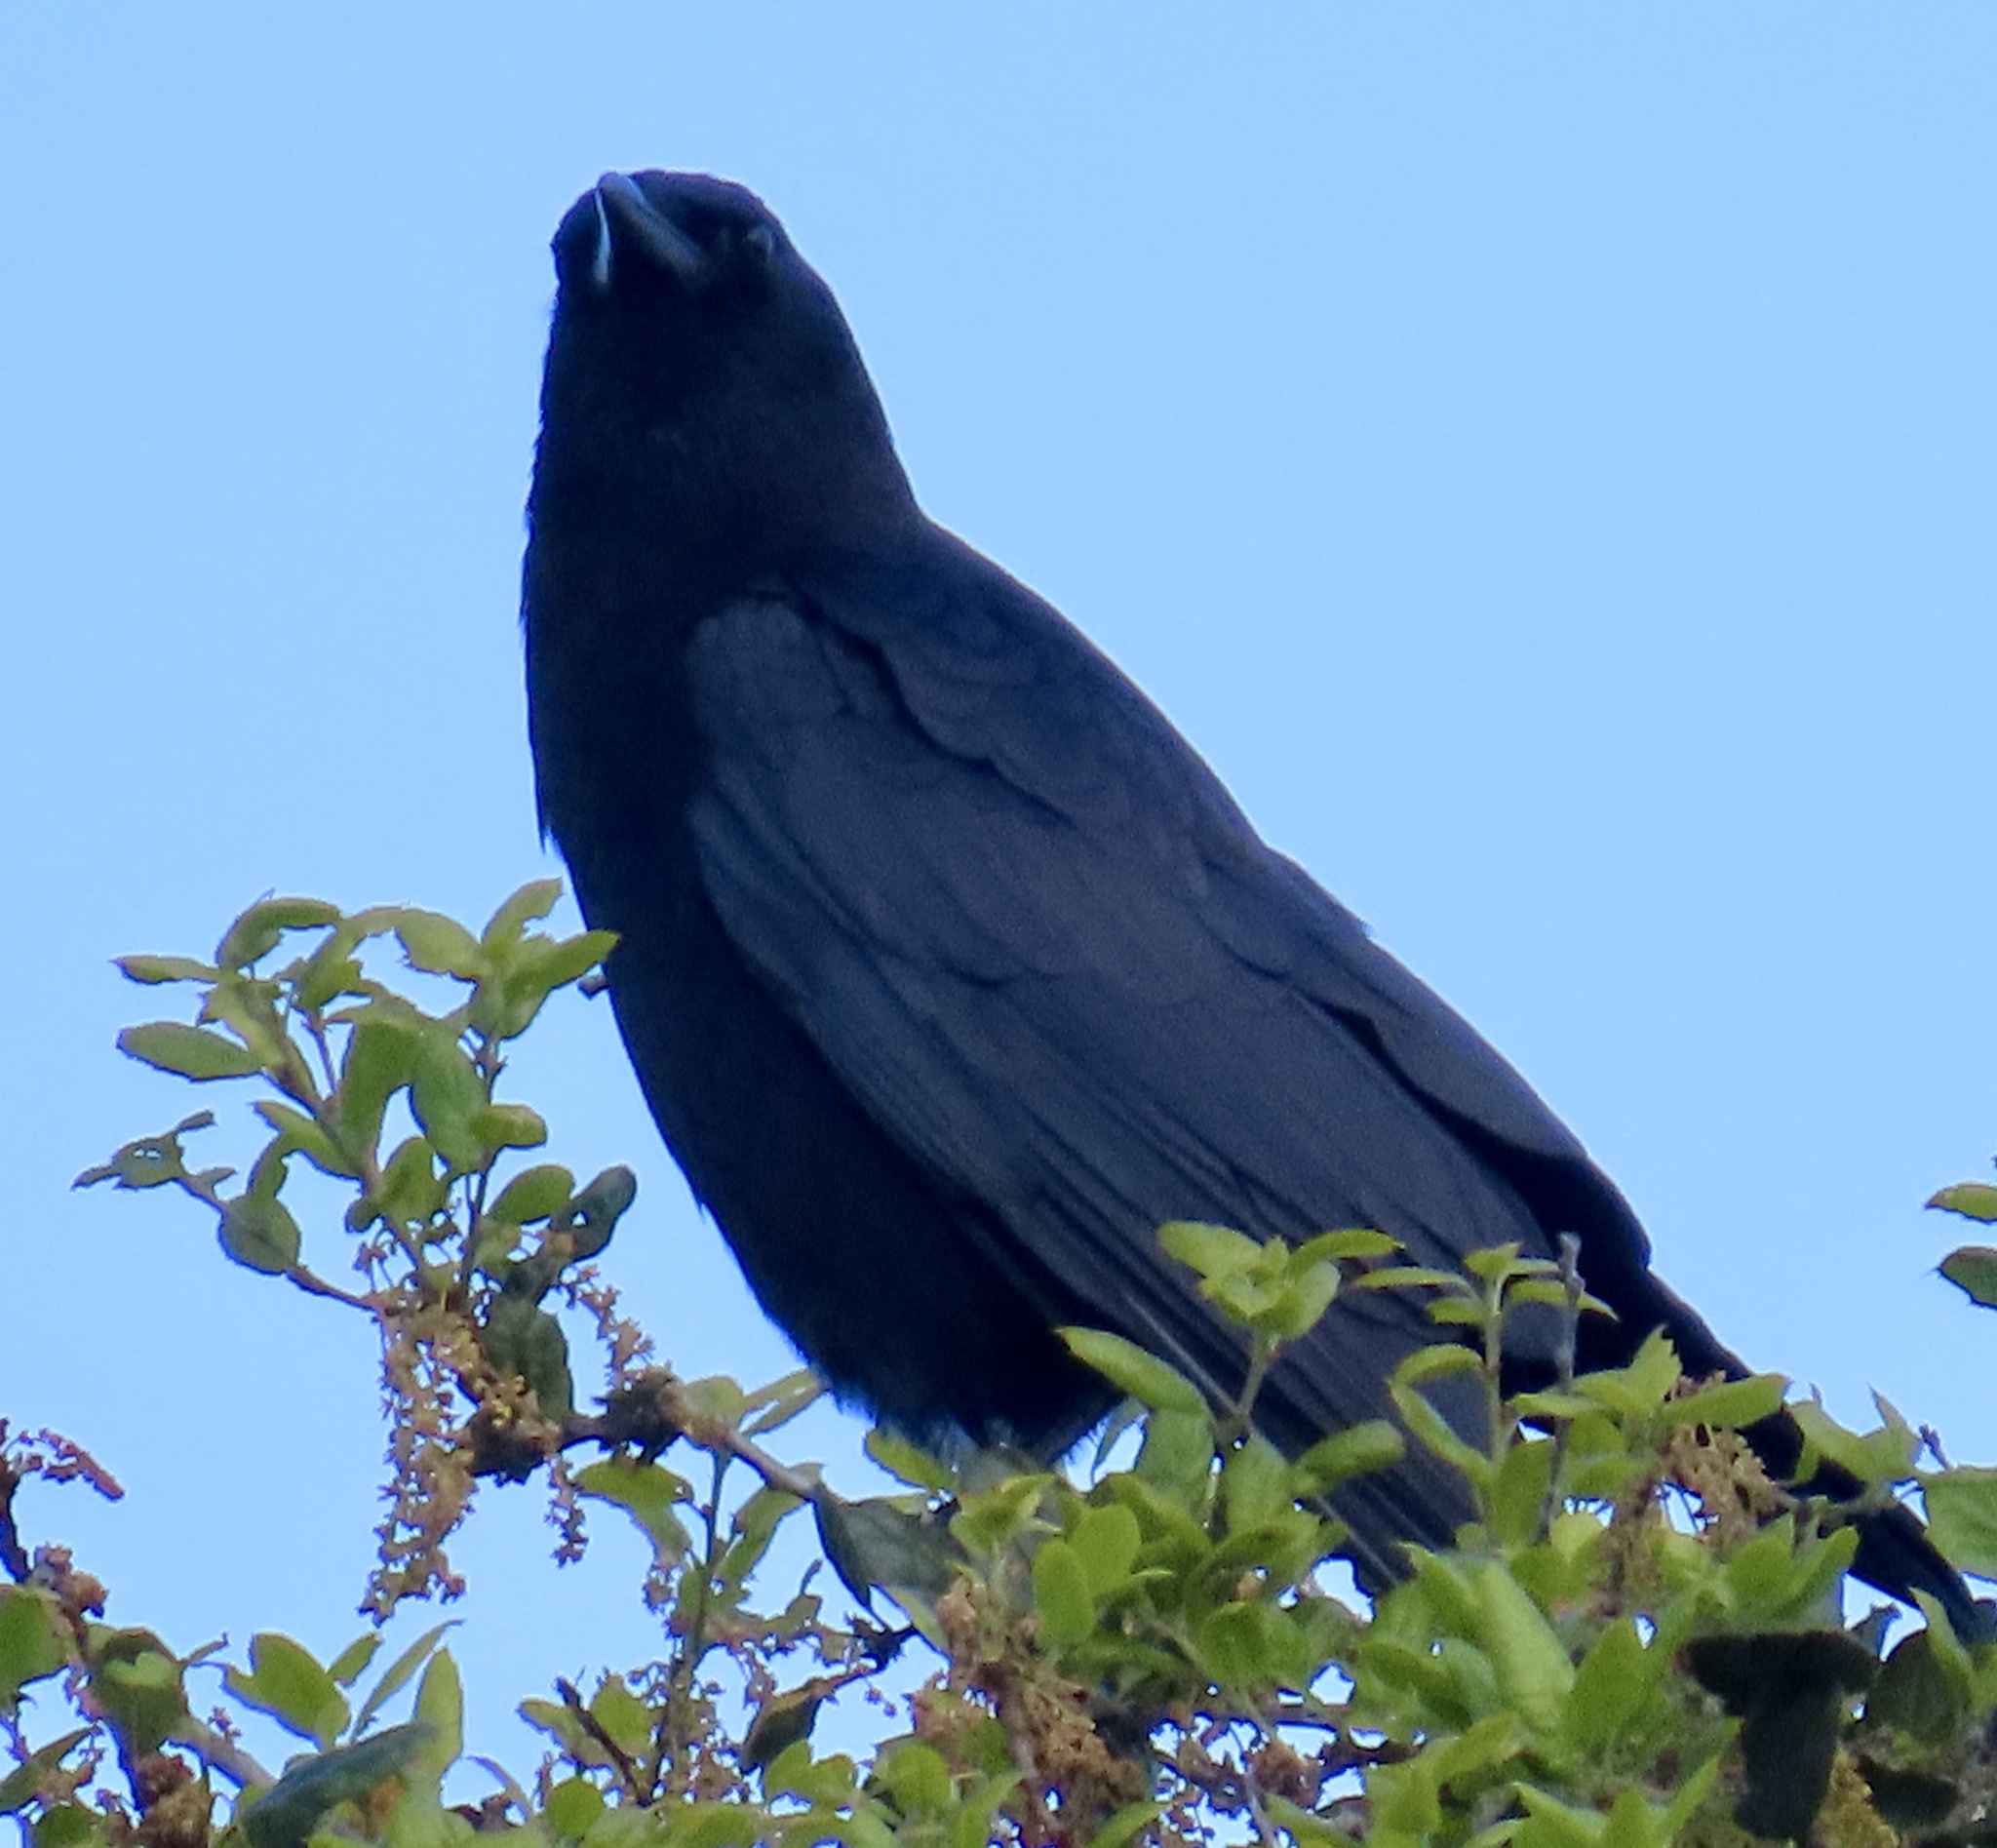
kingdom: Animalia
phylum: Chordata
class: Aves
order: Passeriformes
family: Corvidae
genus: Corvus
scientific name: Corvus brachyrhynchos
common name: American crow
